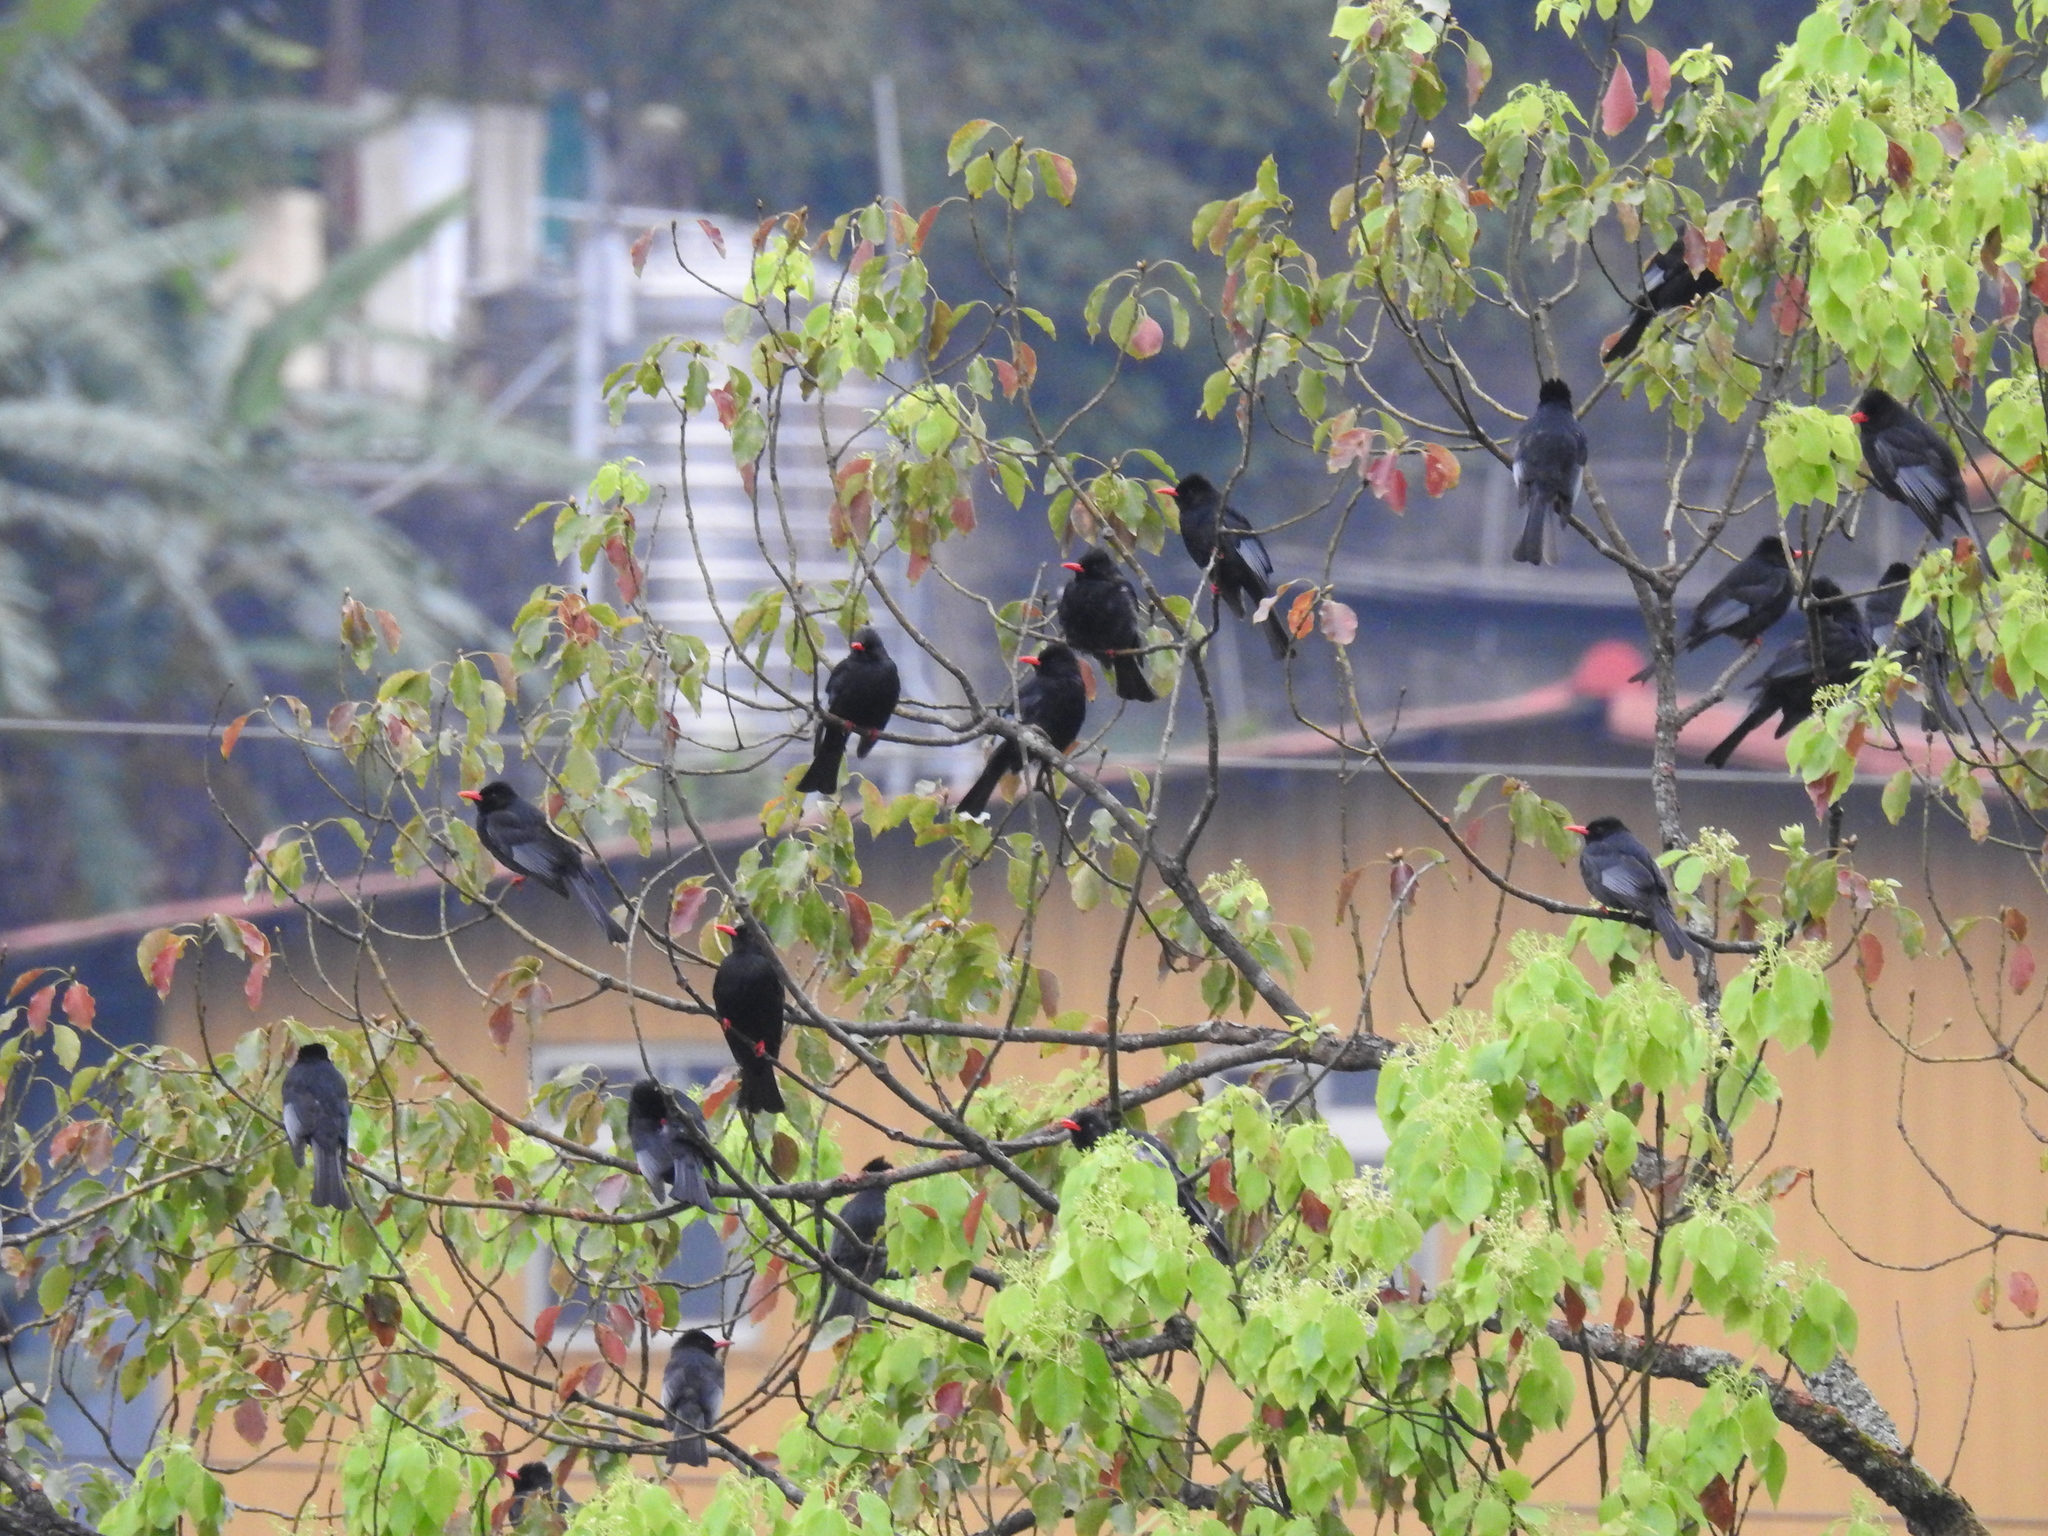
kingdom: Animalia
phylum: Chordata
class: Aves
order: Passeriformes
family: Pycnonotidae
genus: Hypsipetes
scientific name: Hypsipetes leucocephalus
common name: Black bulbul
